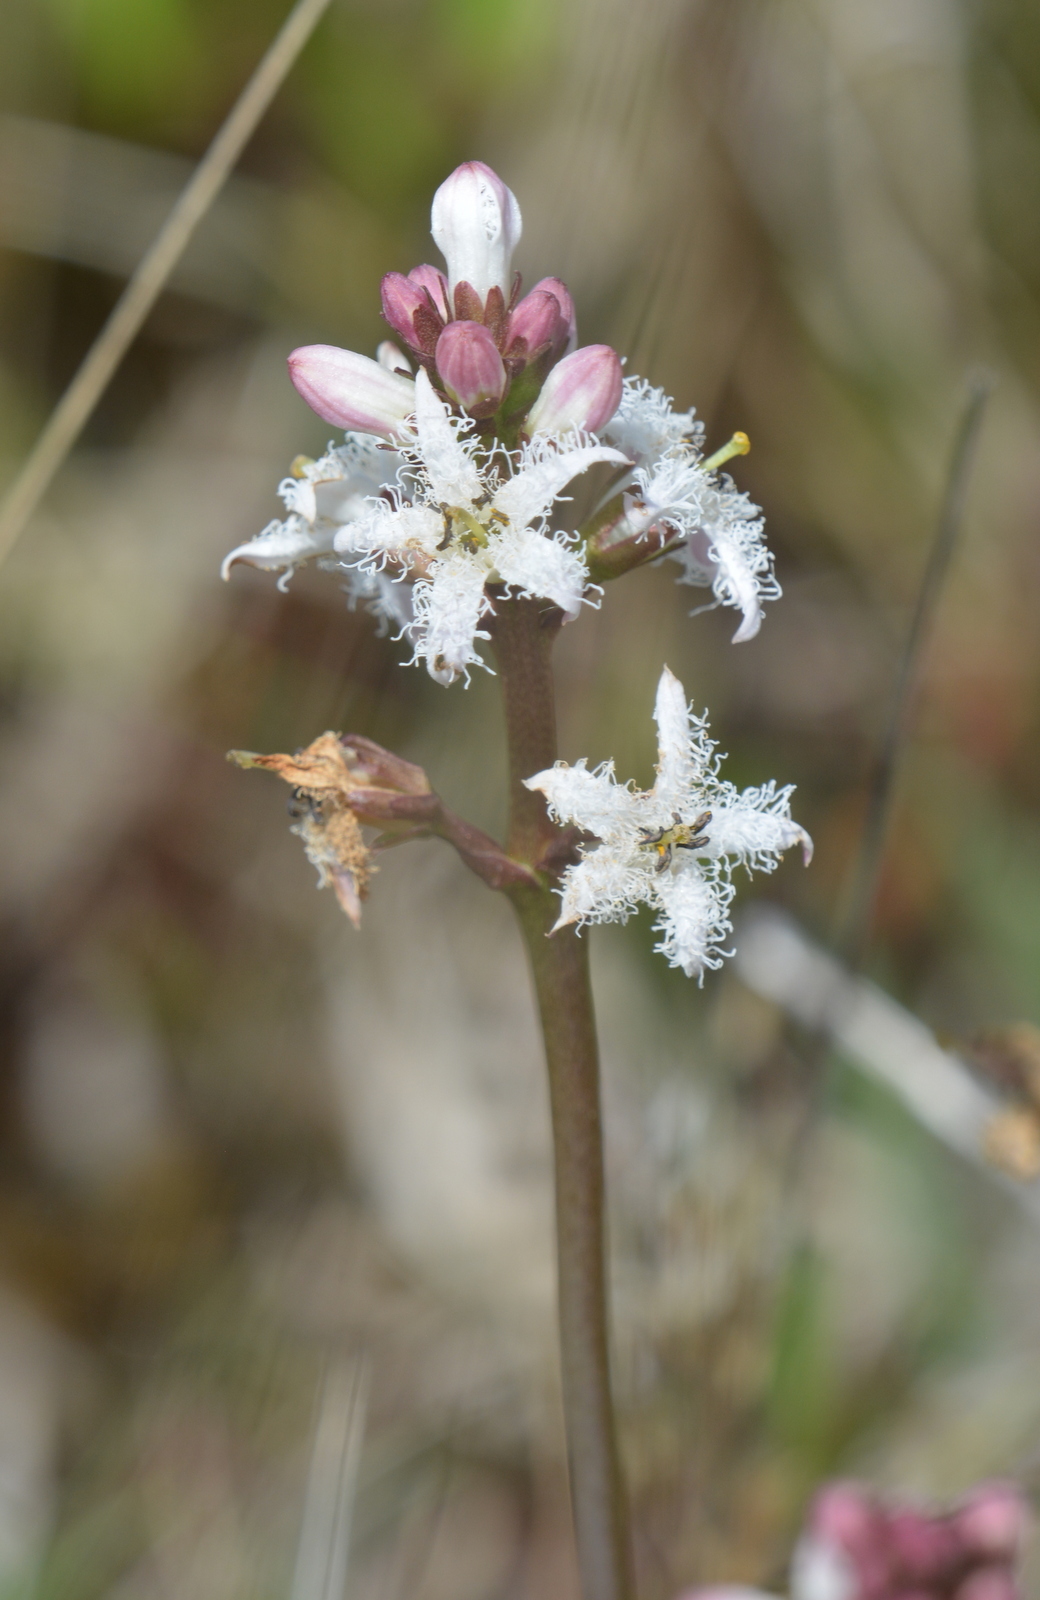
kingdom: Plantae
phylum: Tracheophyta
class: Magnoliopsida
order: Asterales
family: Menyanthaceae
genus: Menyanthes
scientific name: Menyanthes trifoliata
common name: Bogbean
